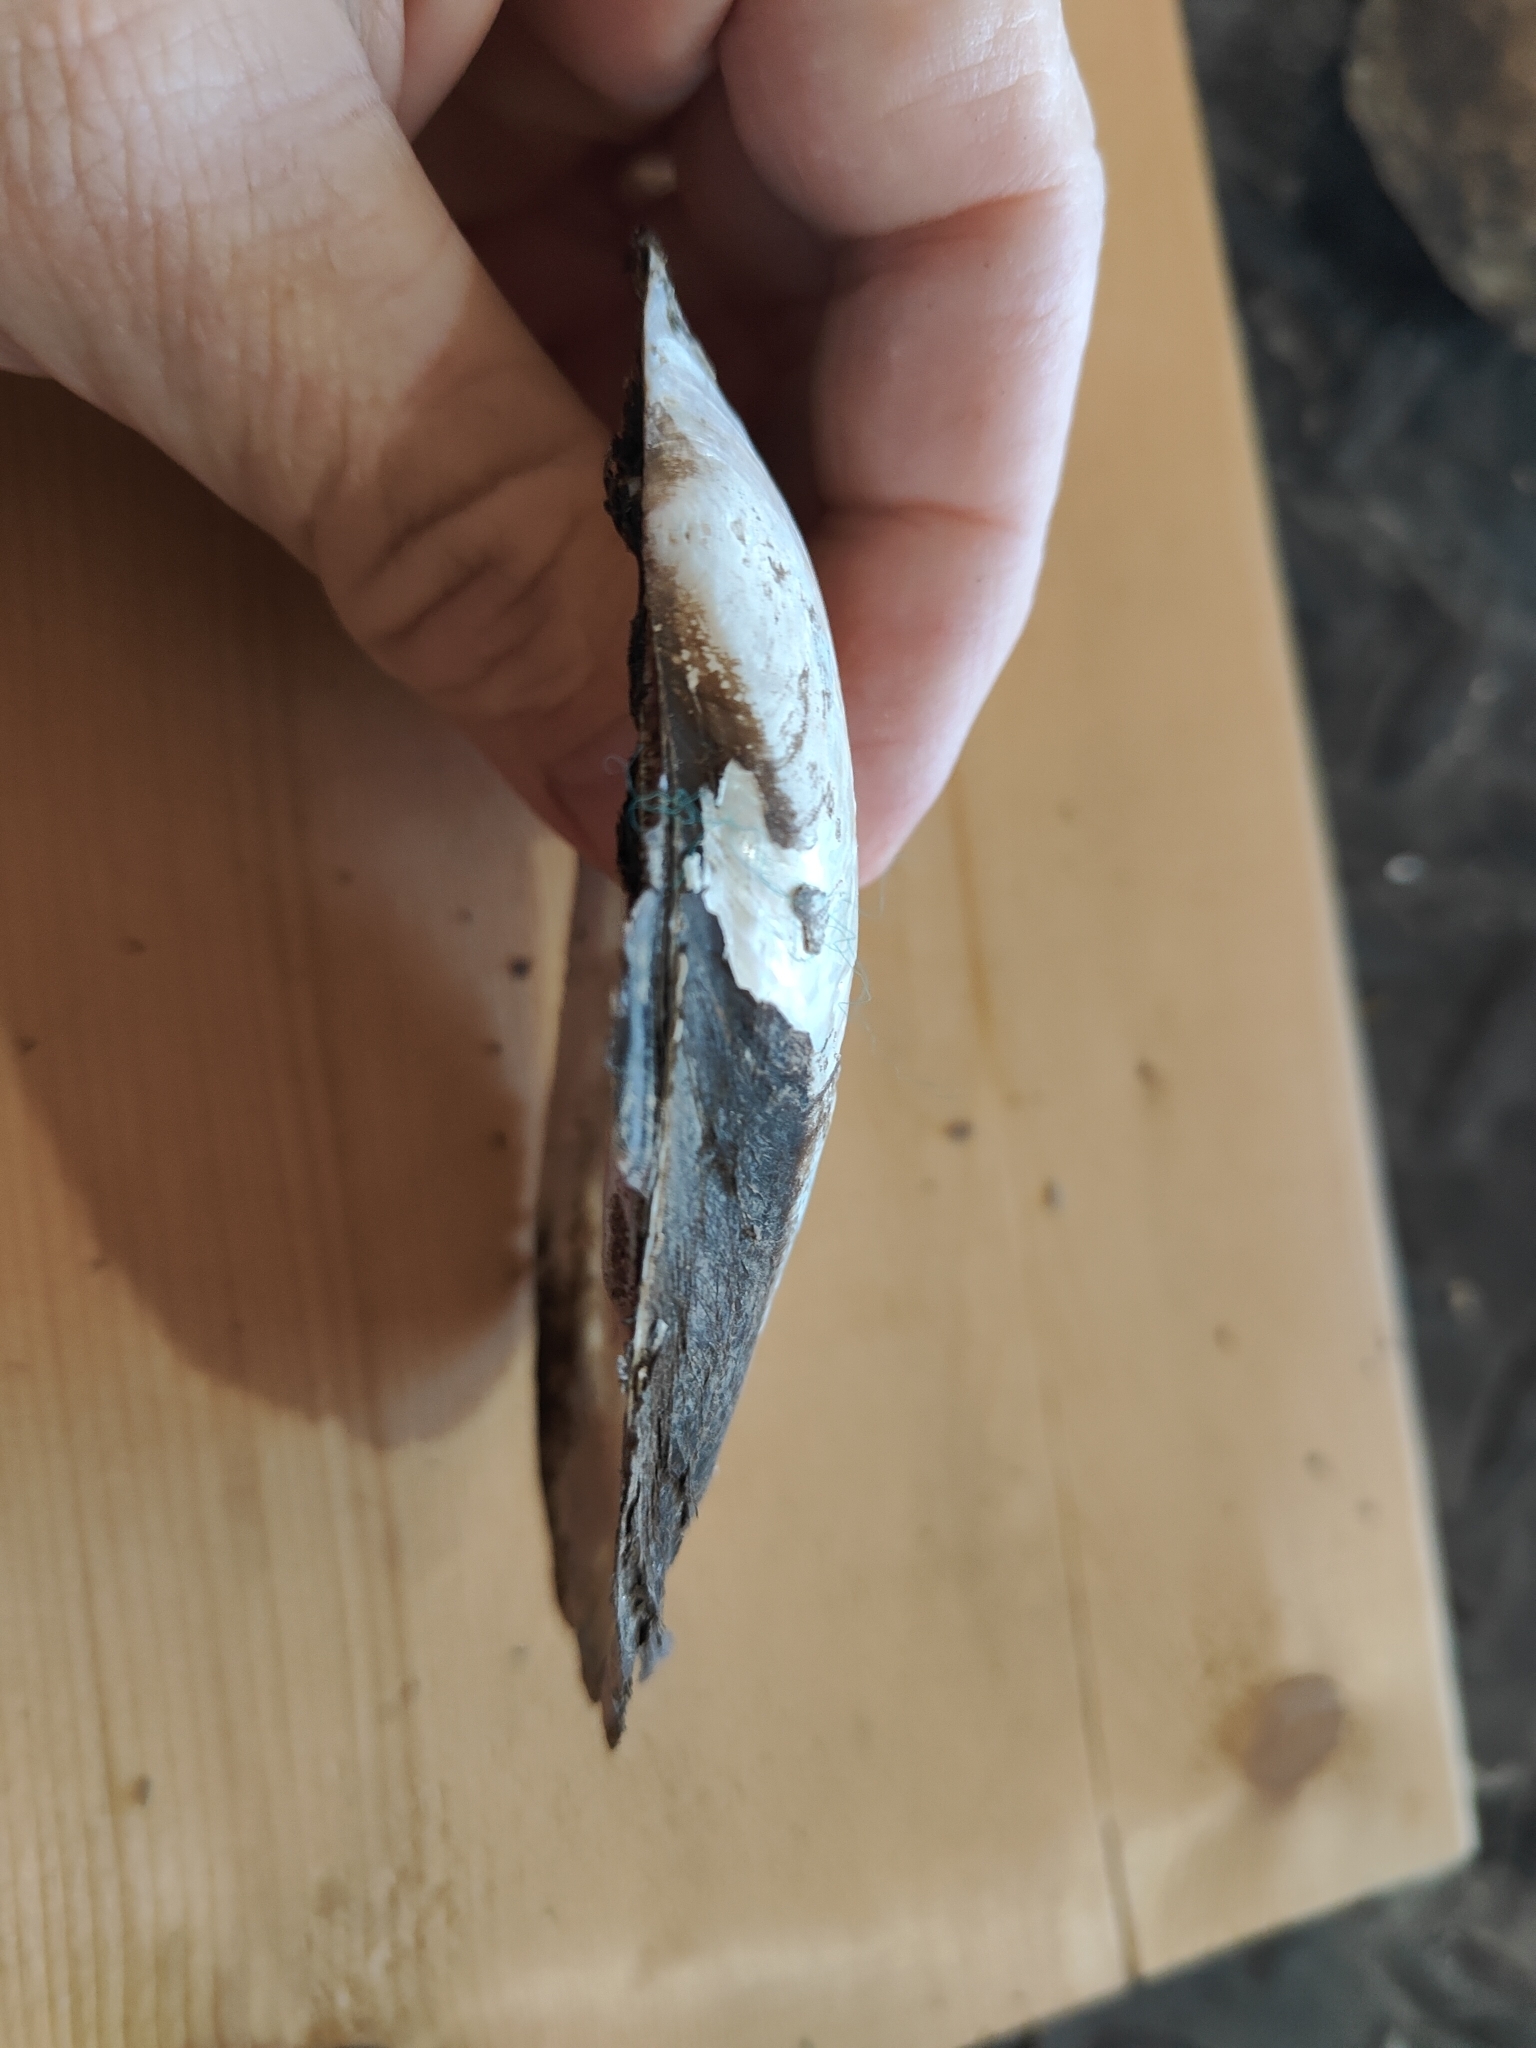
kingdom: Animalia
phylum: Mollusca
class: Bivalvia
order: Unionida
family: Unionidae
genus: Potamilus
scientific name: Potamilus fragilis
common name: Fragile papershell
